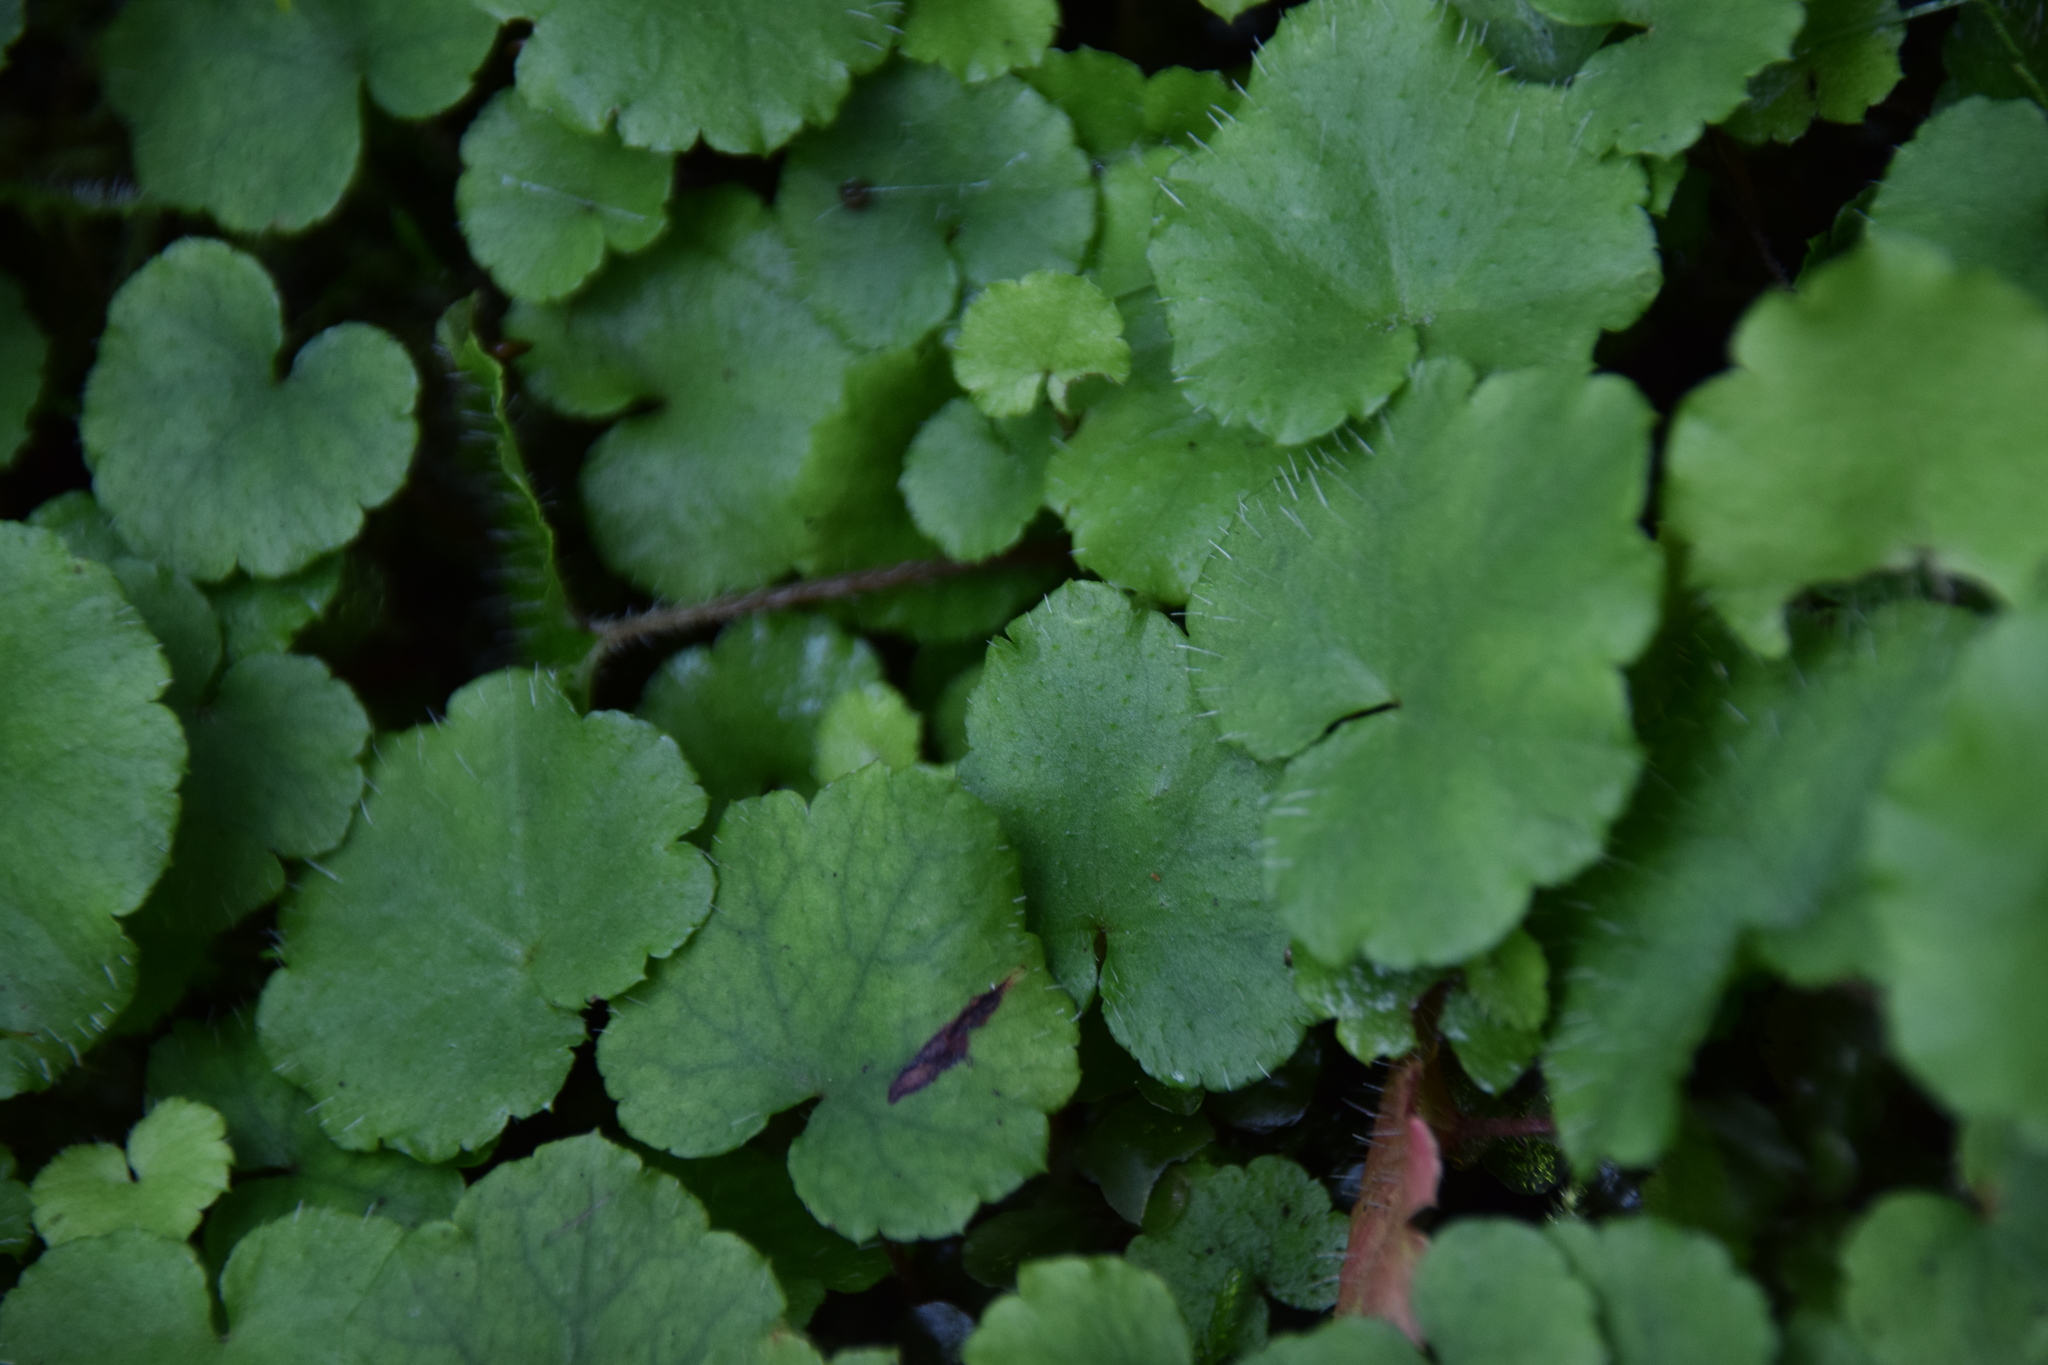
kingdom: Plantae
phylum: Tracheophyta
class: Magnoliopsida
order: Saxifragales
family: Saxifragaceae
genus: Mitella
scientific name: Mitella nuda
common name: Bare-stemmed bishop's-cap
